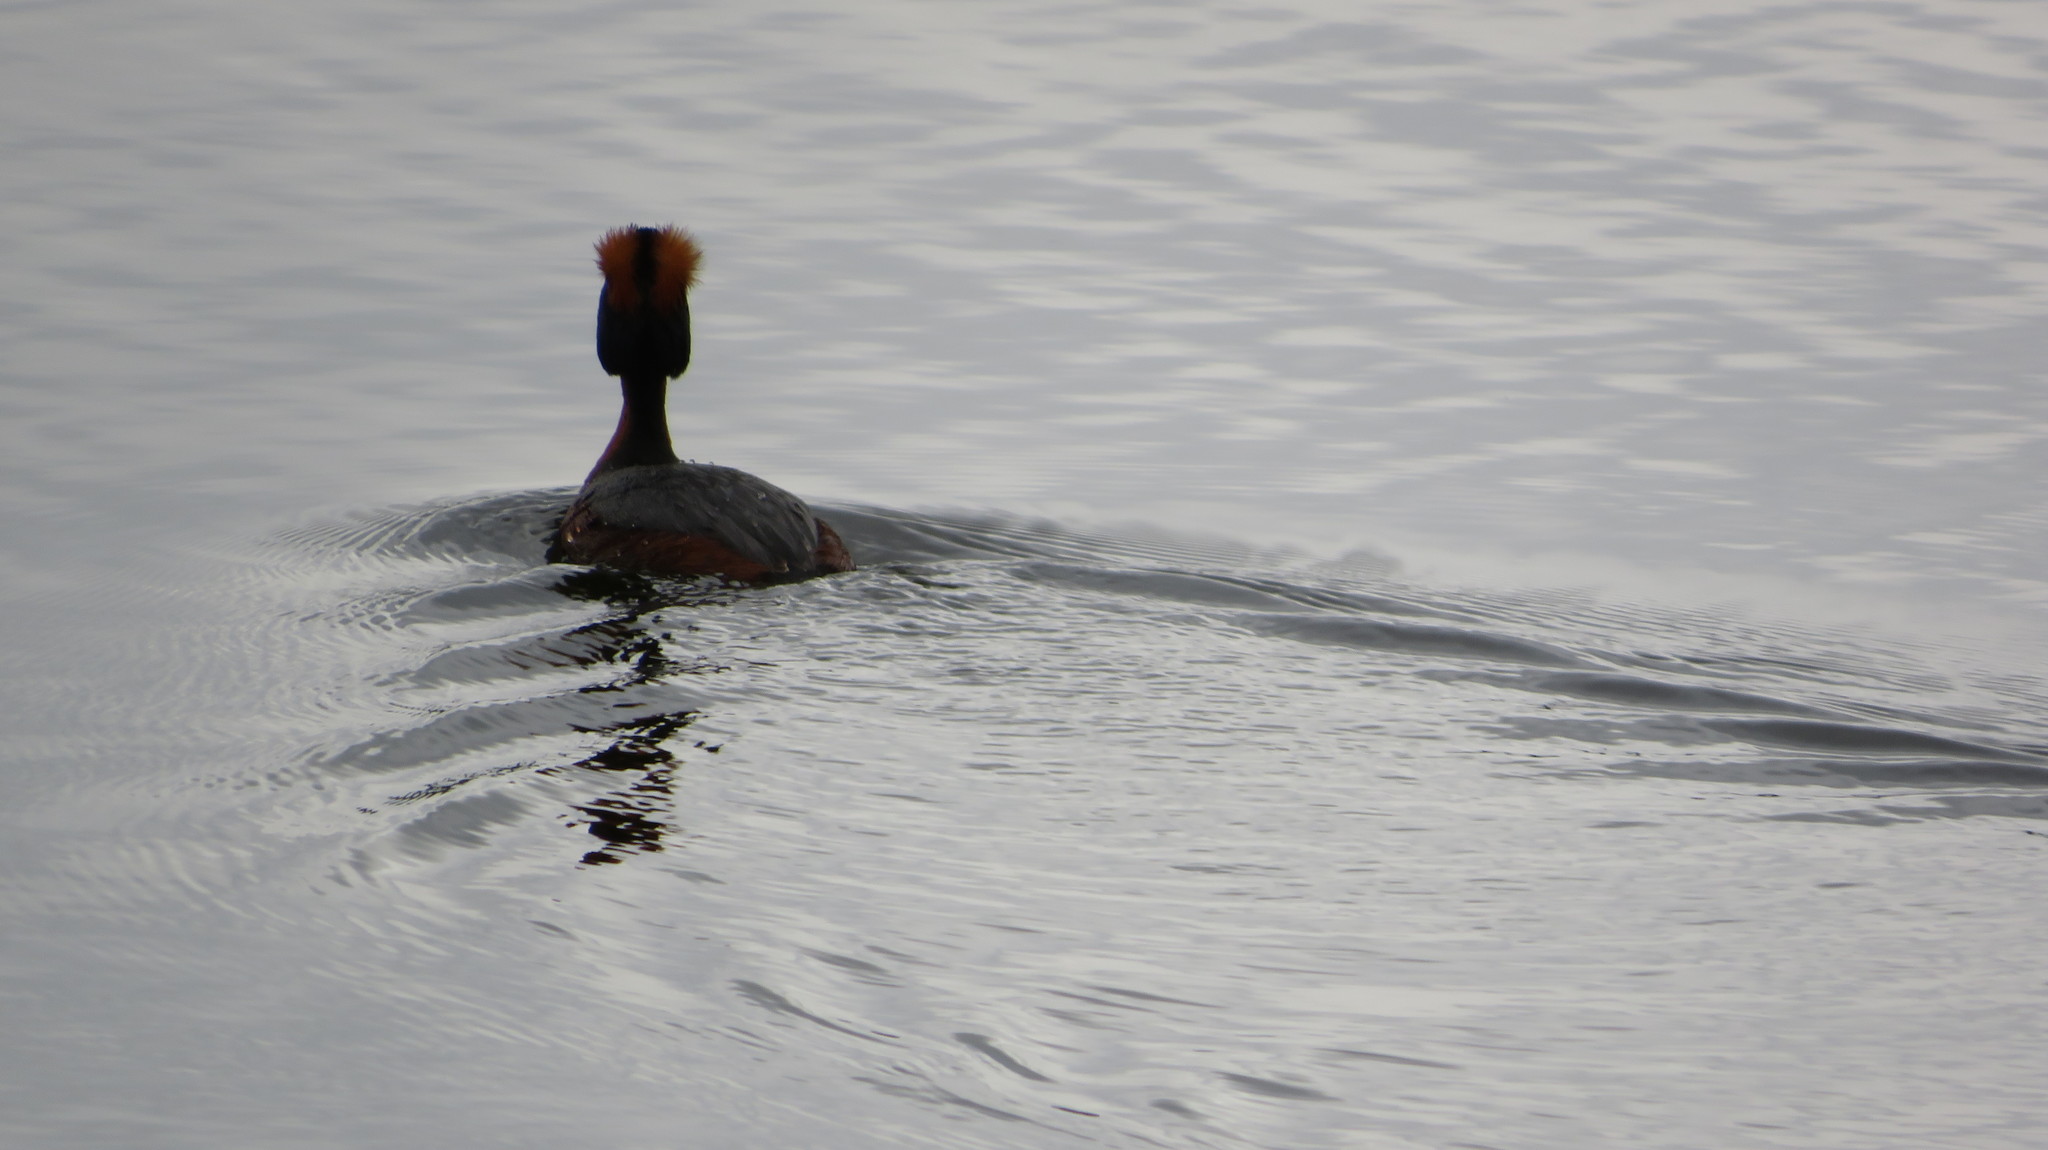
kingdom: Animalia
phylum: Chordata
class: Aves
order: Podicipediformes
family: Podicipedidae
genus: Podiceps
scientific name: Podiceps auritus
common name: Horned grebe
